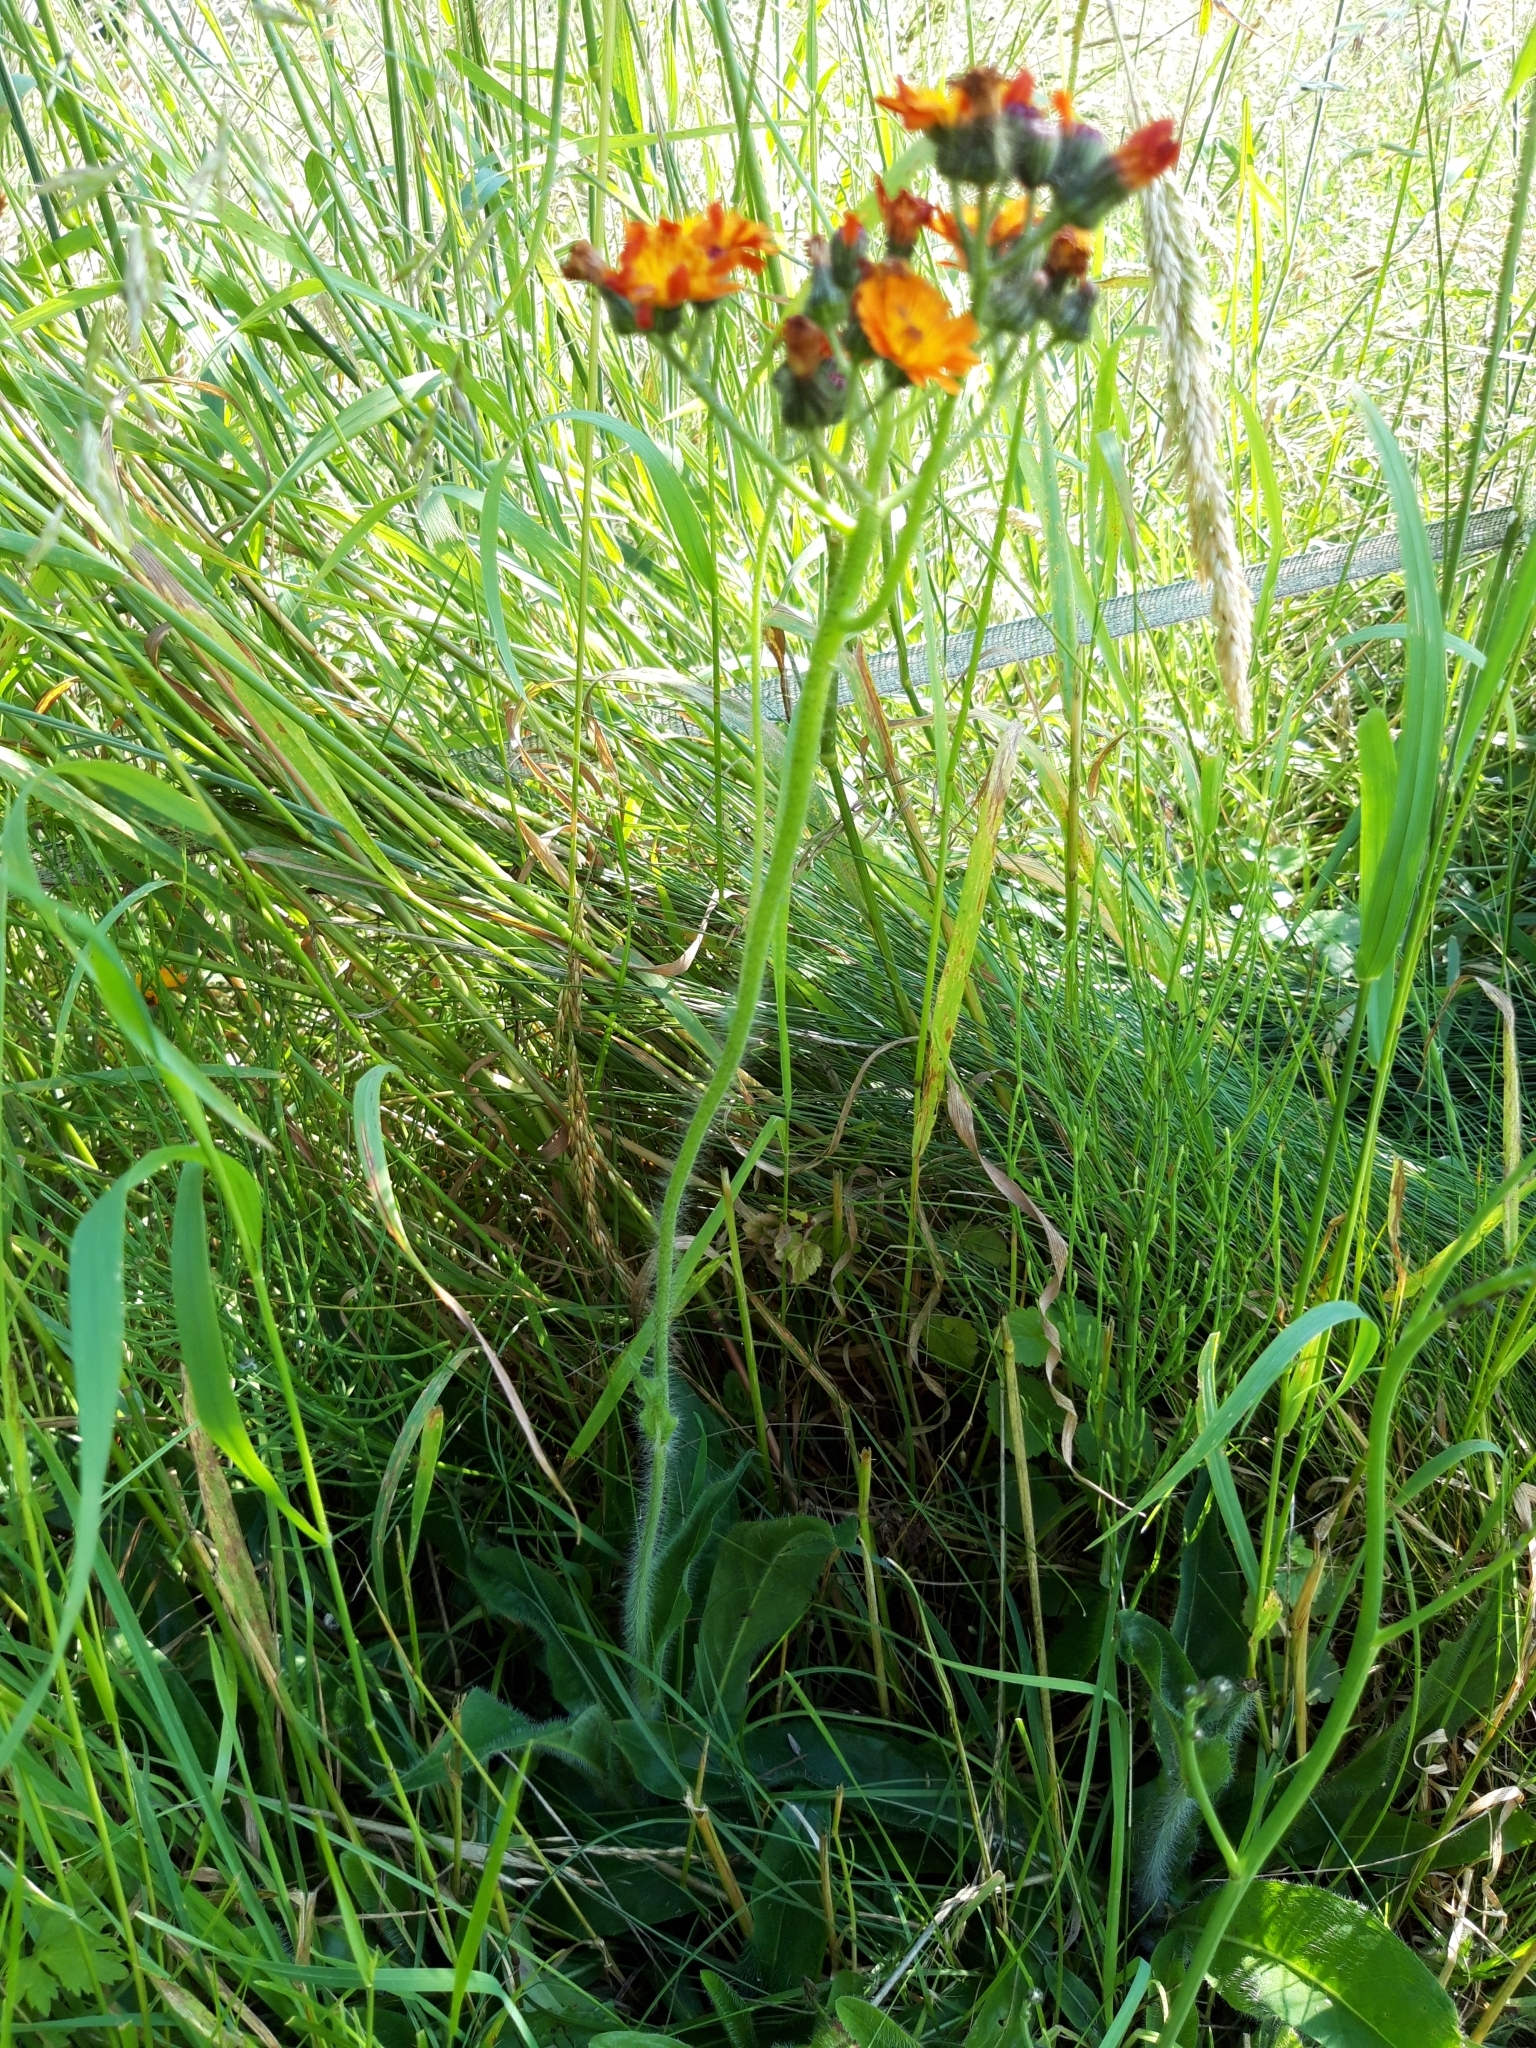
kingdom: Plantae
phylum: Tracheophyta
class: Magnoliopsida
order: Asterales
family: Asteraceae
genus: Pilosella
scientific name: Pilosella aurantiaca
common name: Fox-and-cubs
